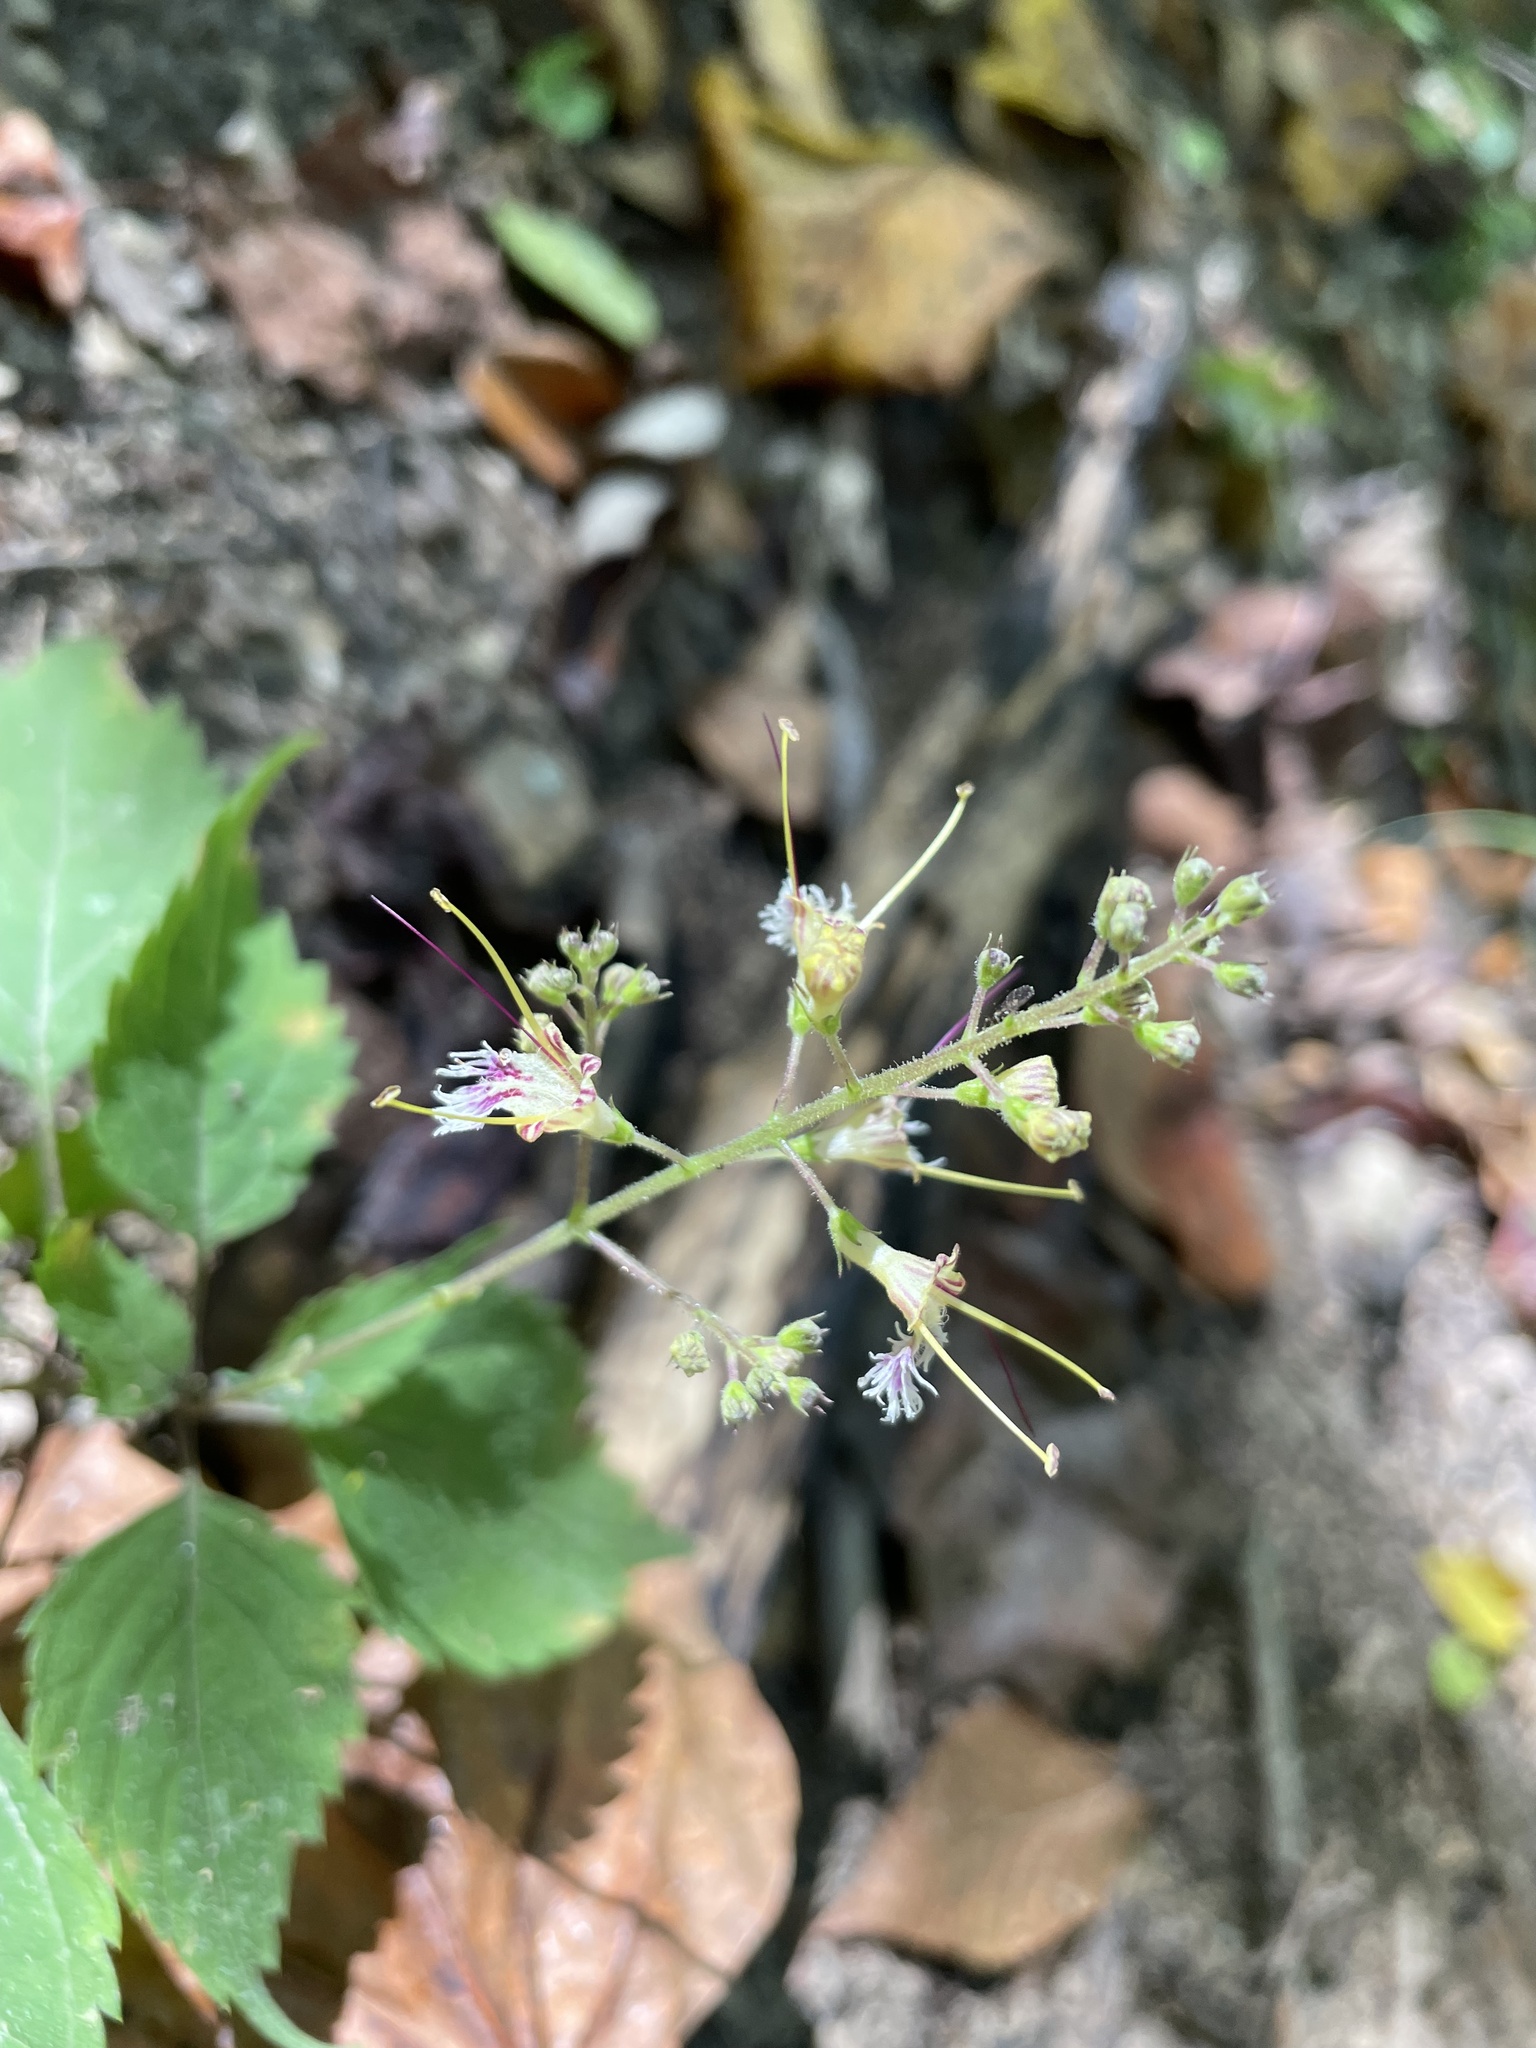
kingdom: Plantae
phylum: Tracheophyta
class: Magnoliopsida
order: Lamiales
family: Lamiaceae
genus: Collinsonia
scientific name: Collinsonia canadensis
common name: Northern horsebalm
